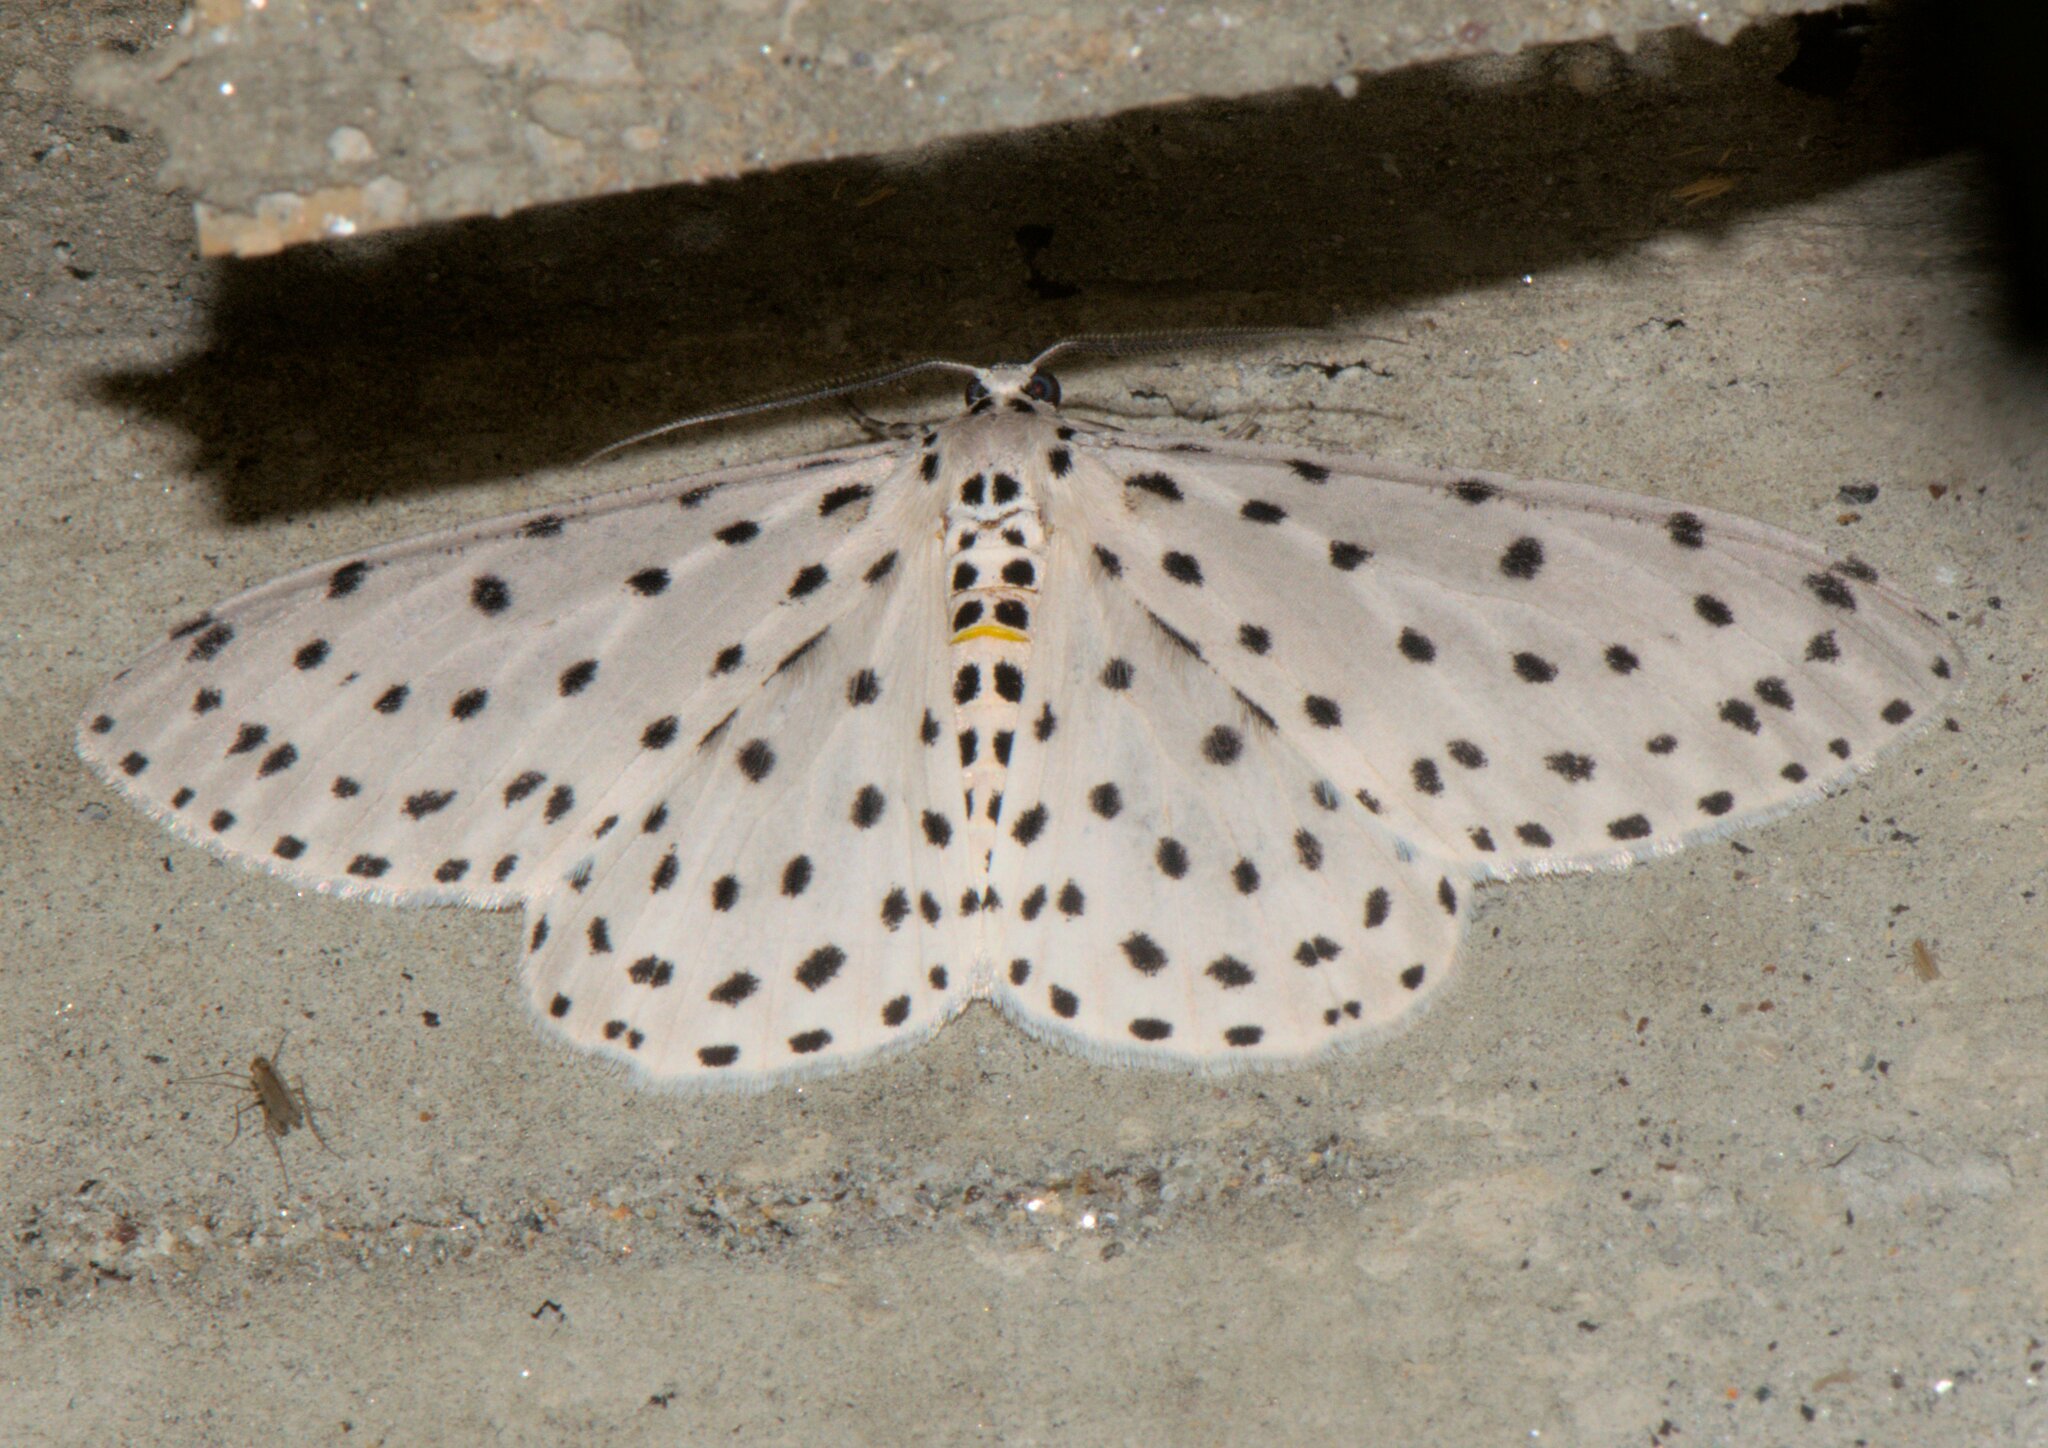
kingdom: Animalia
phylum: Arthropoda
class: Insecta
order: Lepidoptera
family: Geometridae
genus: Xenoplia
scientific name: Xenoplia foraria
